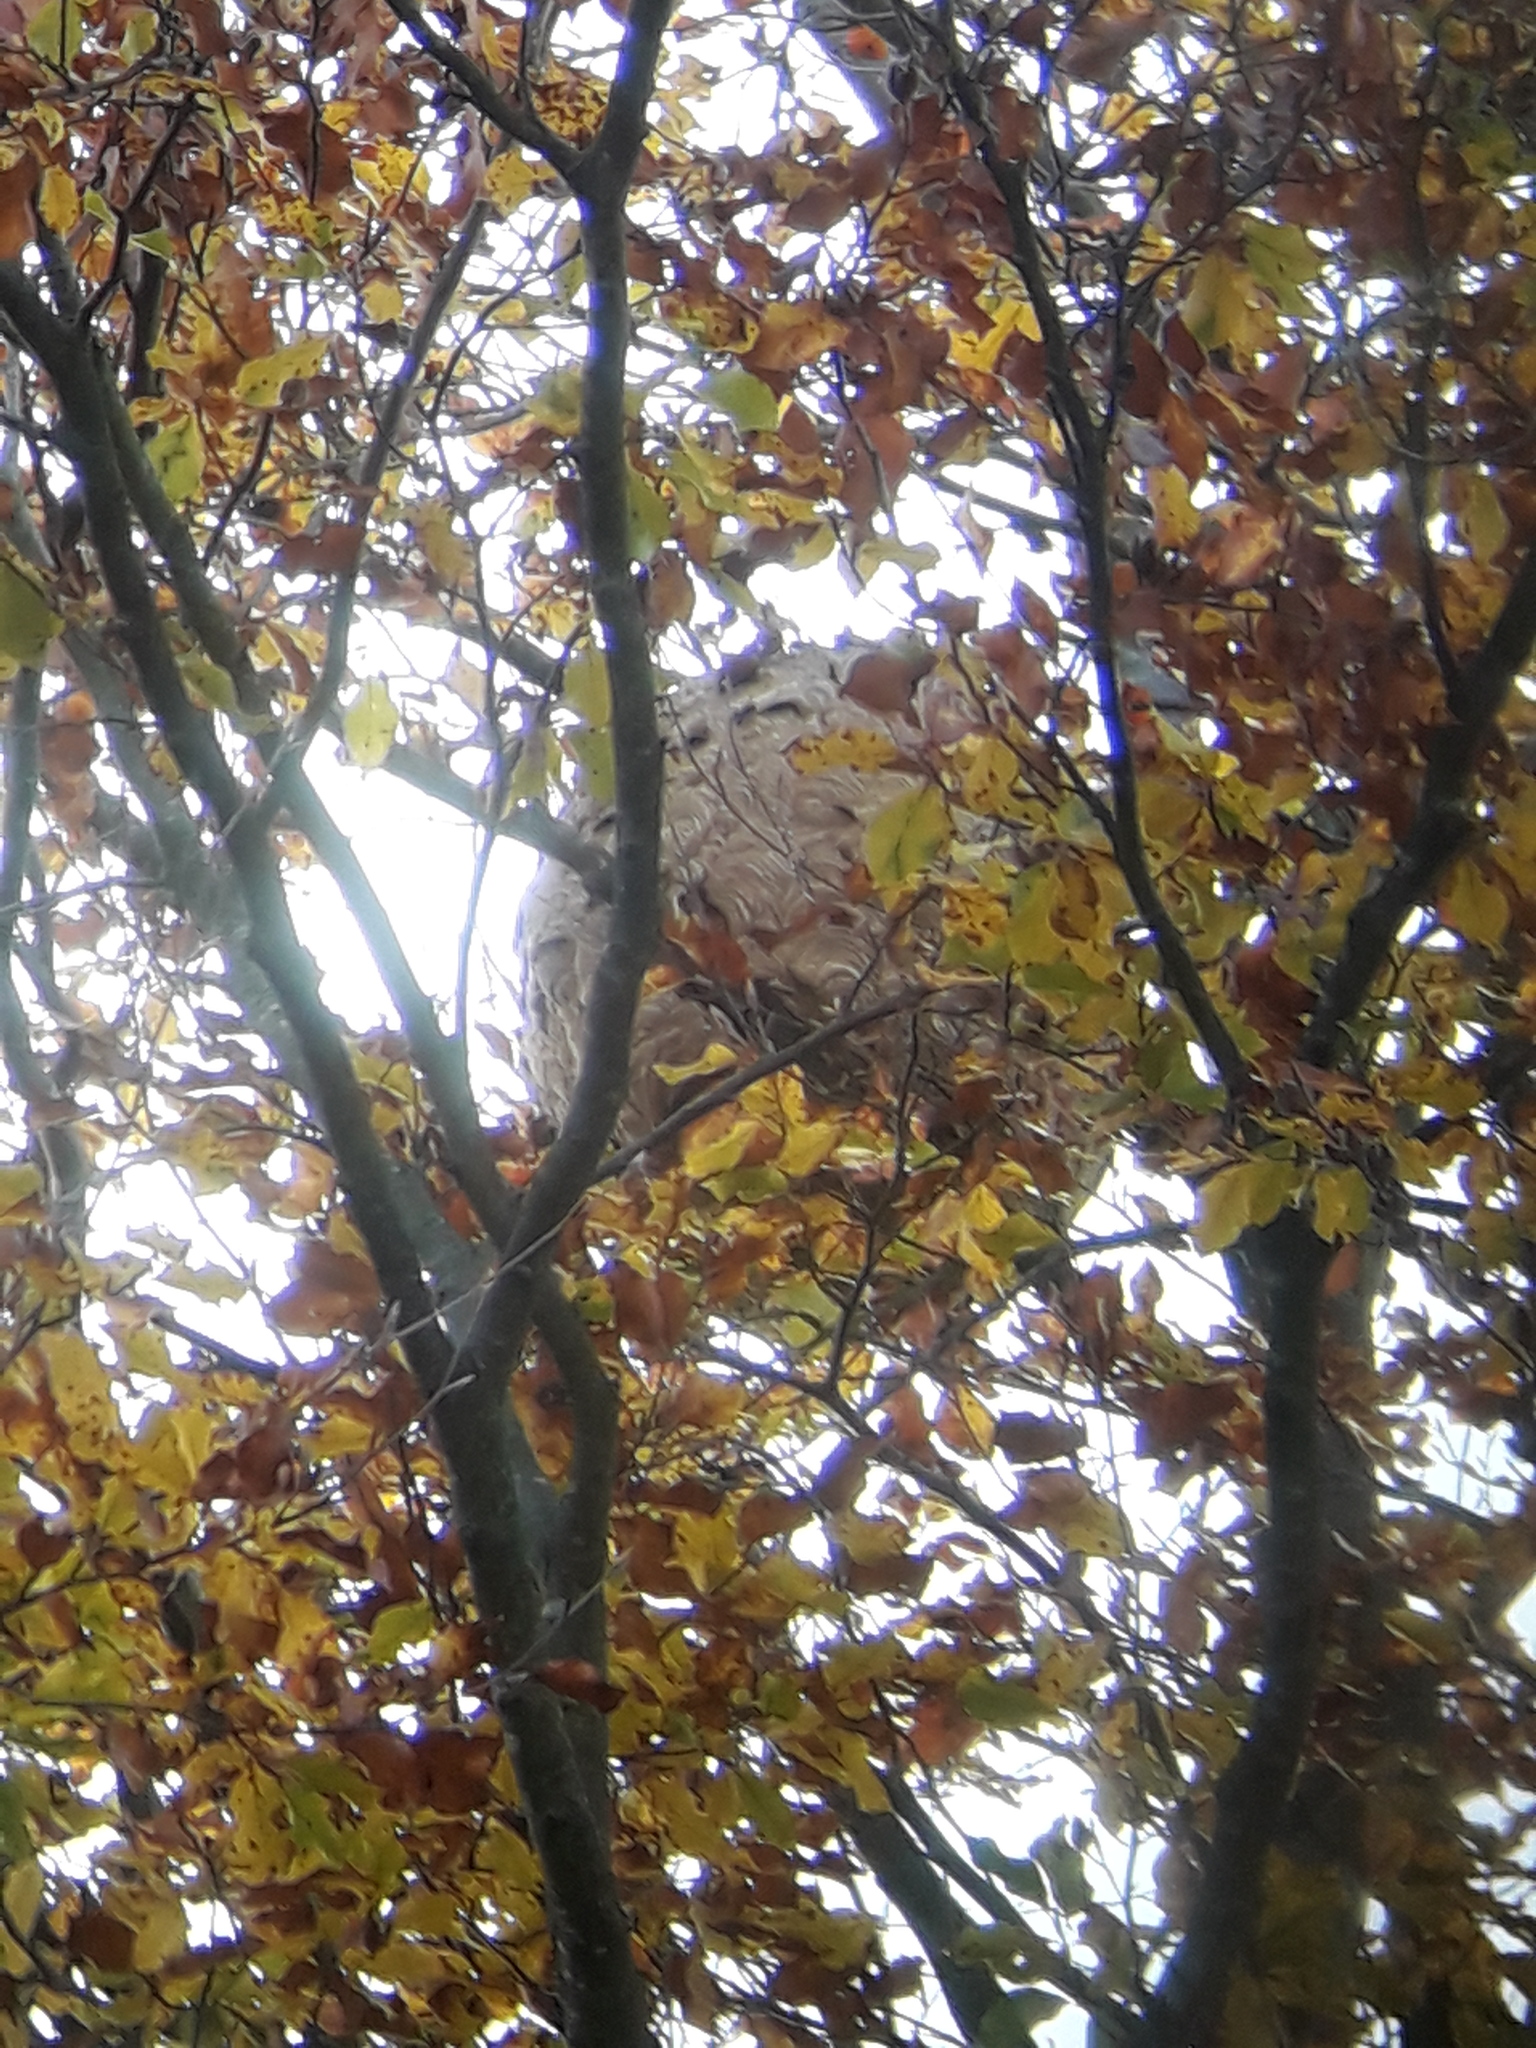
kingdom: Animalia
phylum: Arthropoda
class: Insecta
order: Hymenoptera
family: Vespidae
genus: Vespa
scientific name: Vespa velutina
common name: Asian hornet
